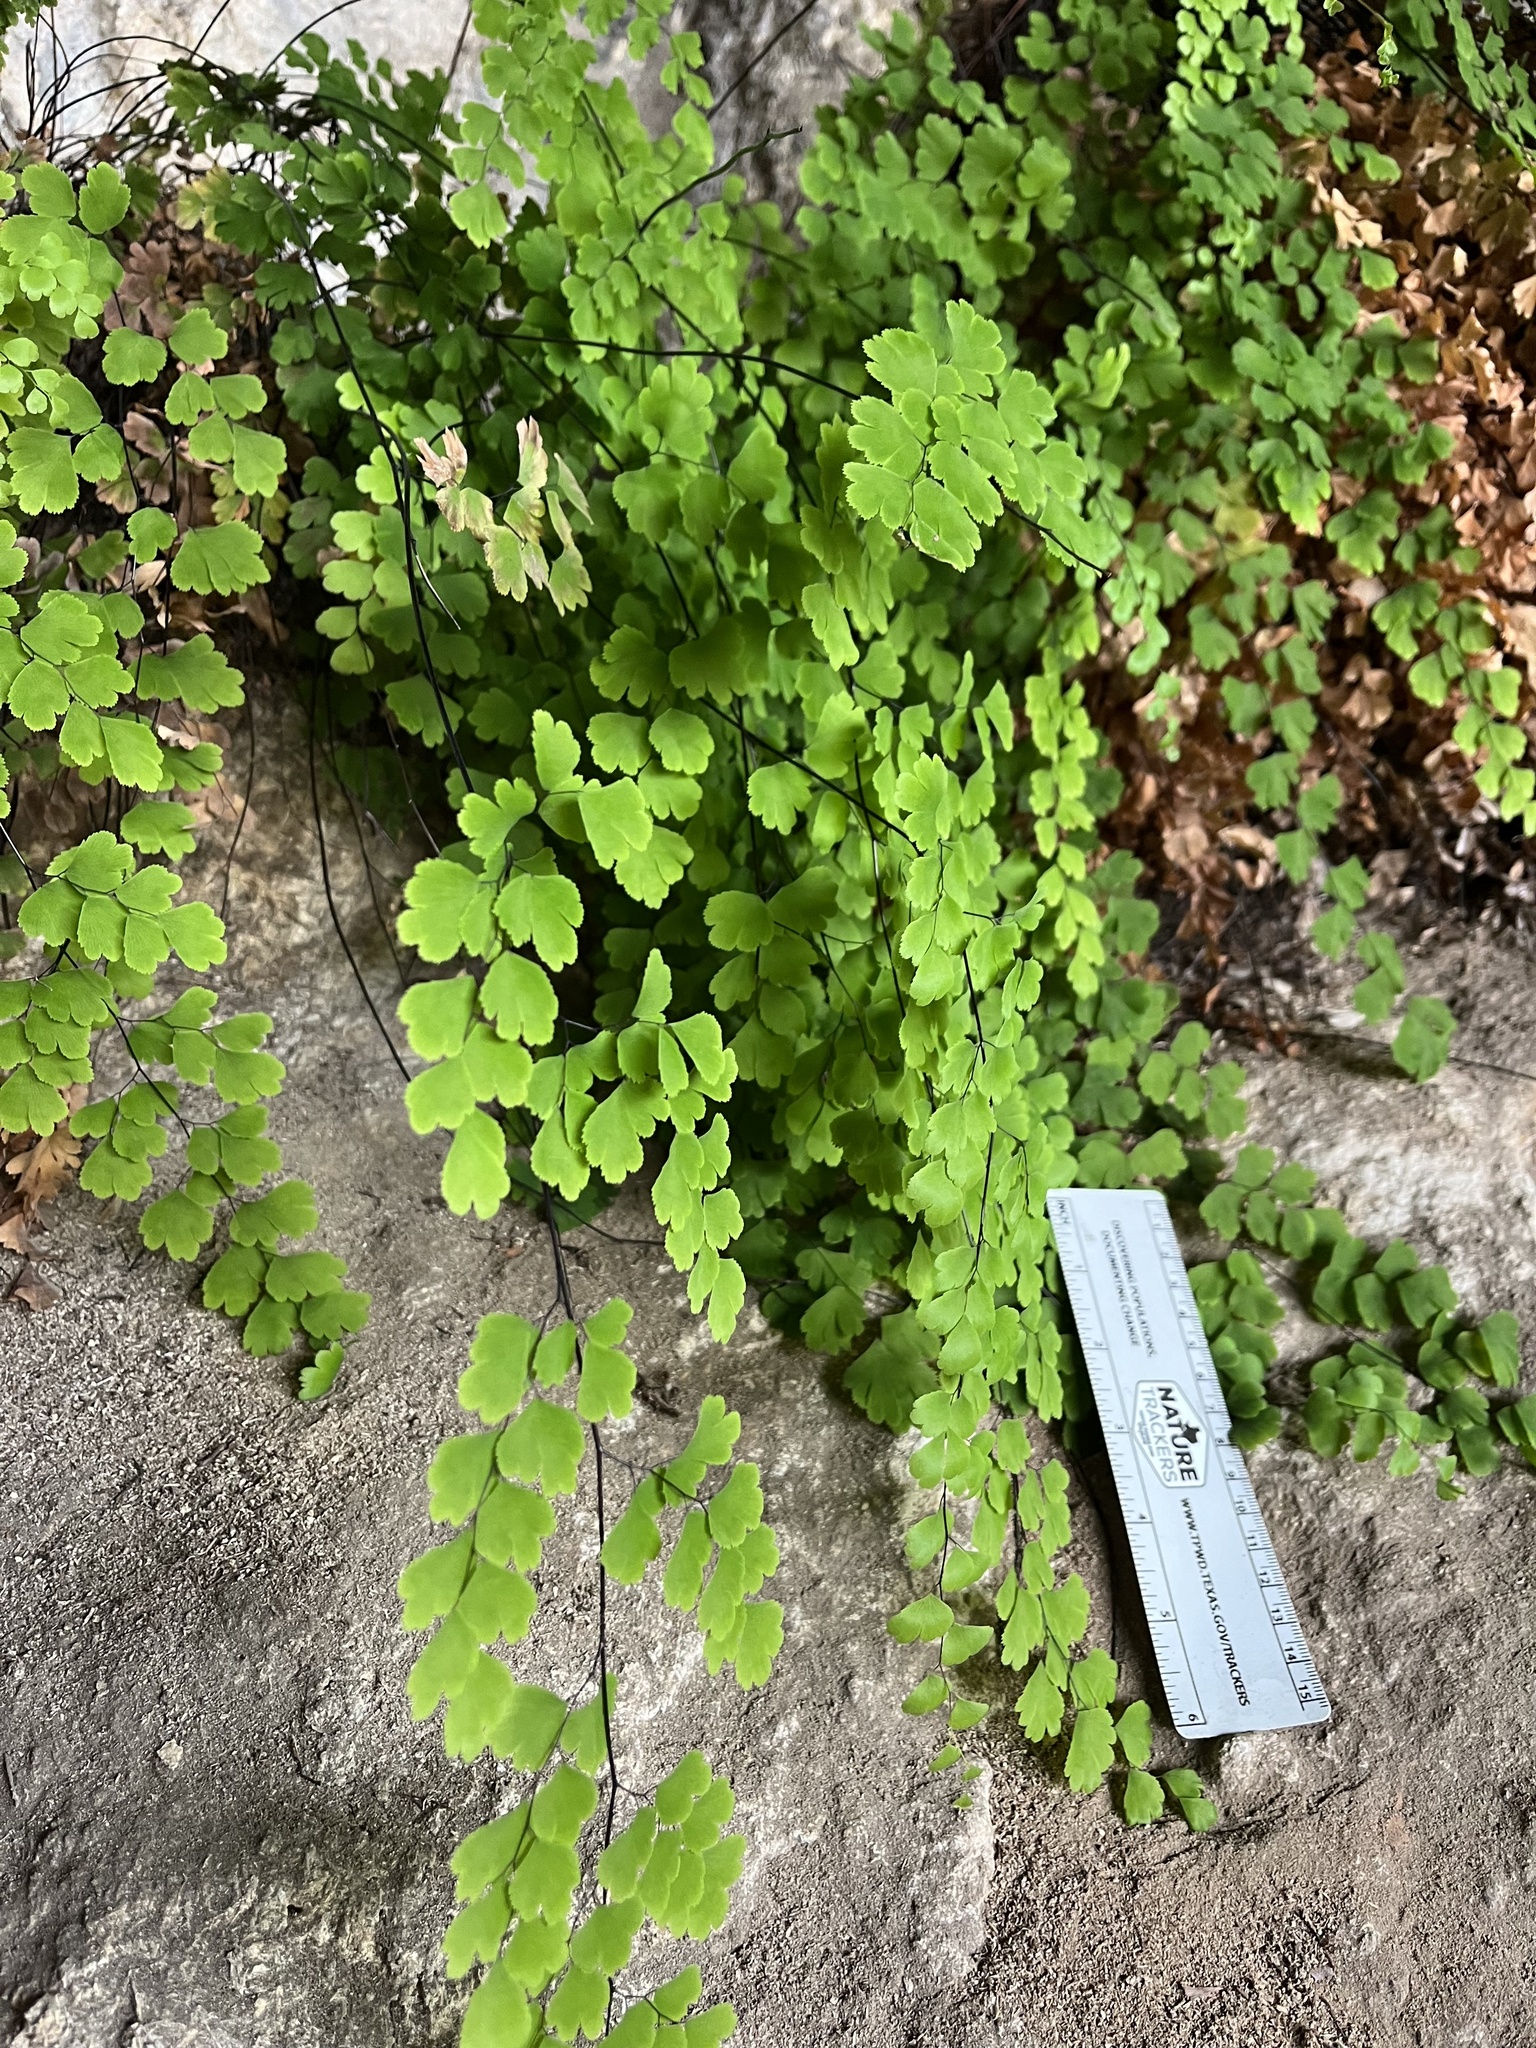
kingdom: Plantae
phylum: Tracheophyta
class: Polypodiopsida
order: Polypodiales
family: Pteridaceae
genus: Adiantum
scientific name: Adiantum capillus-veneris
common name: Maidenhair fern
